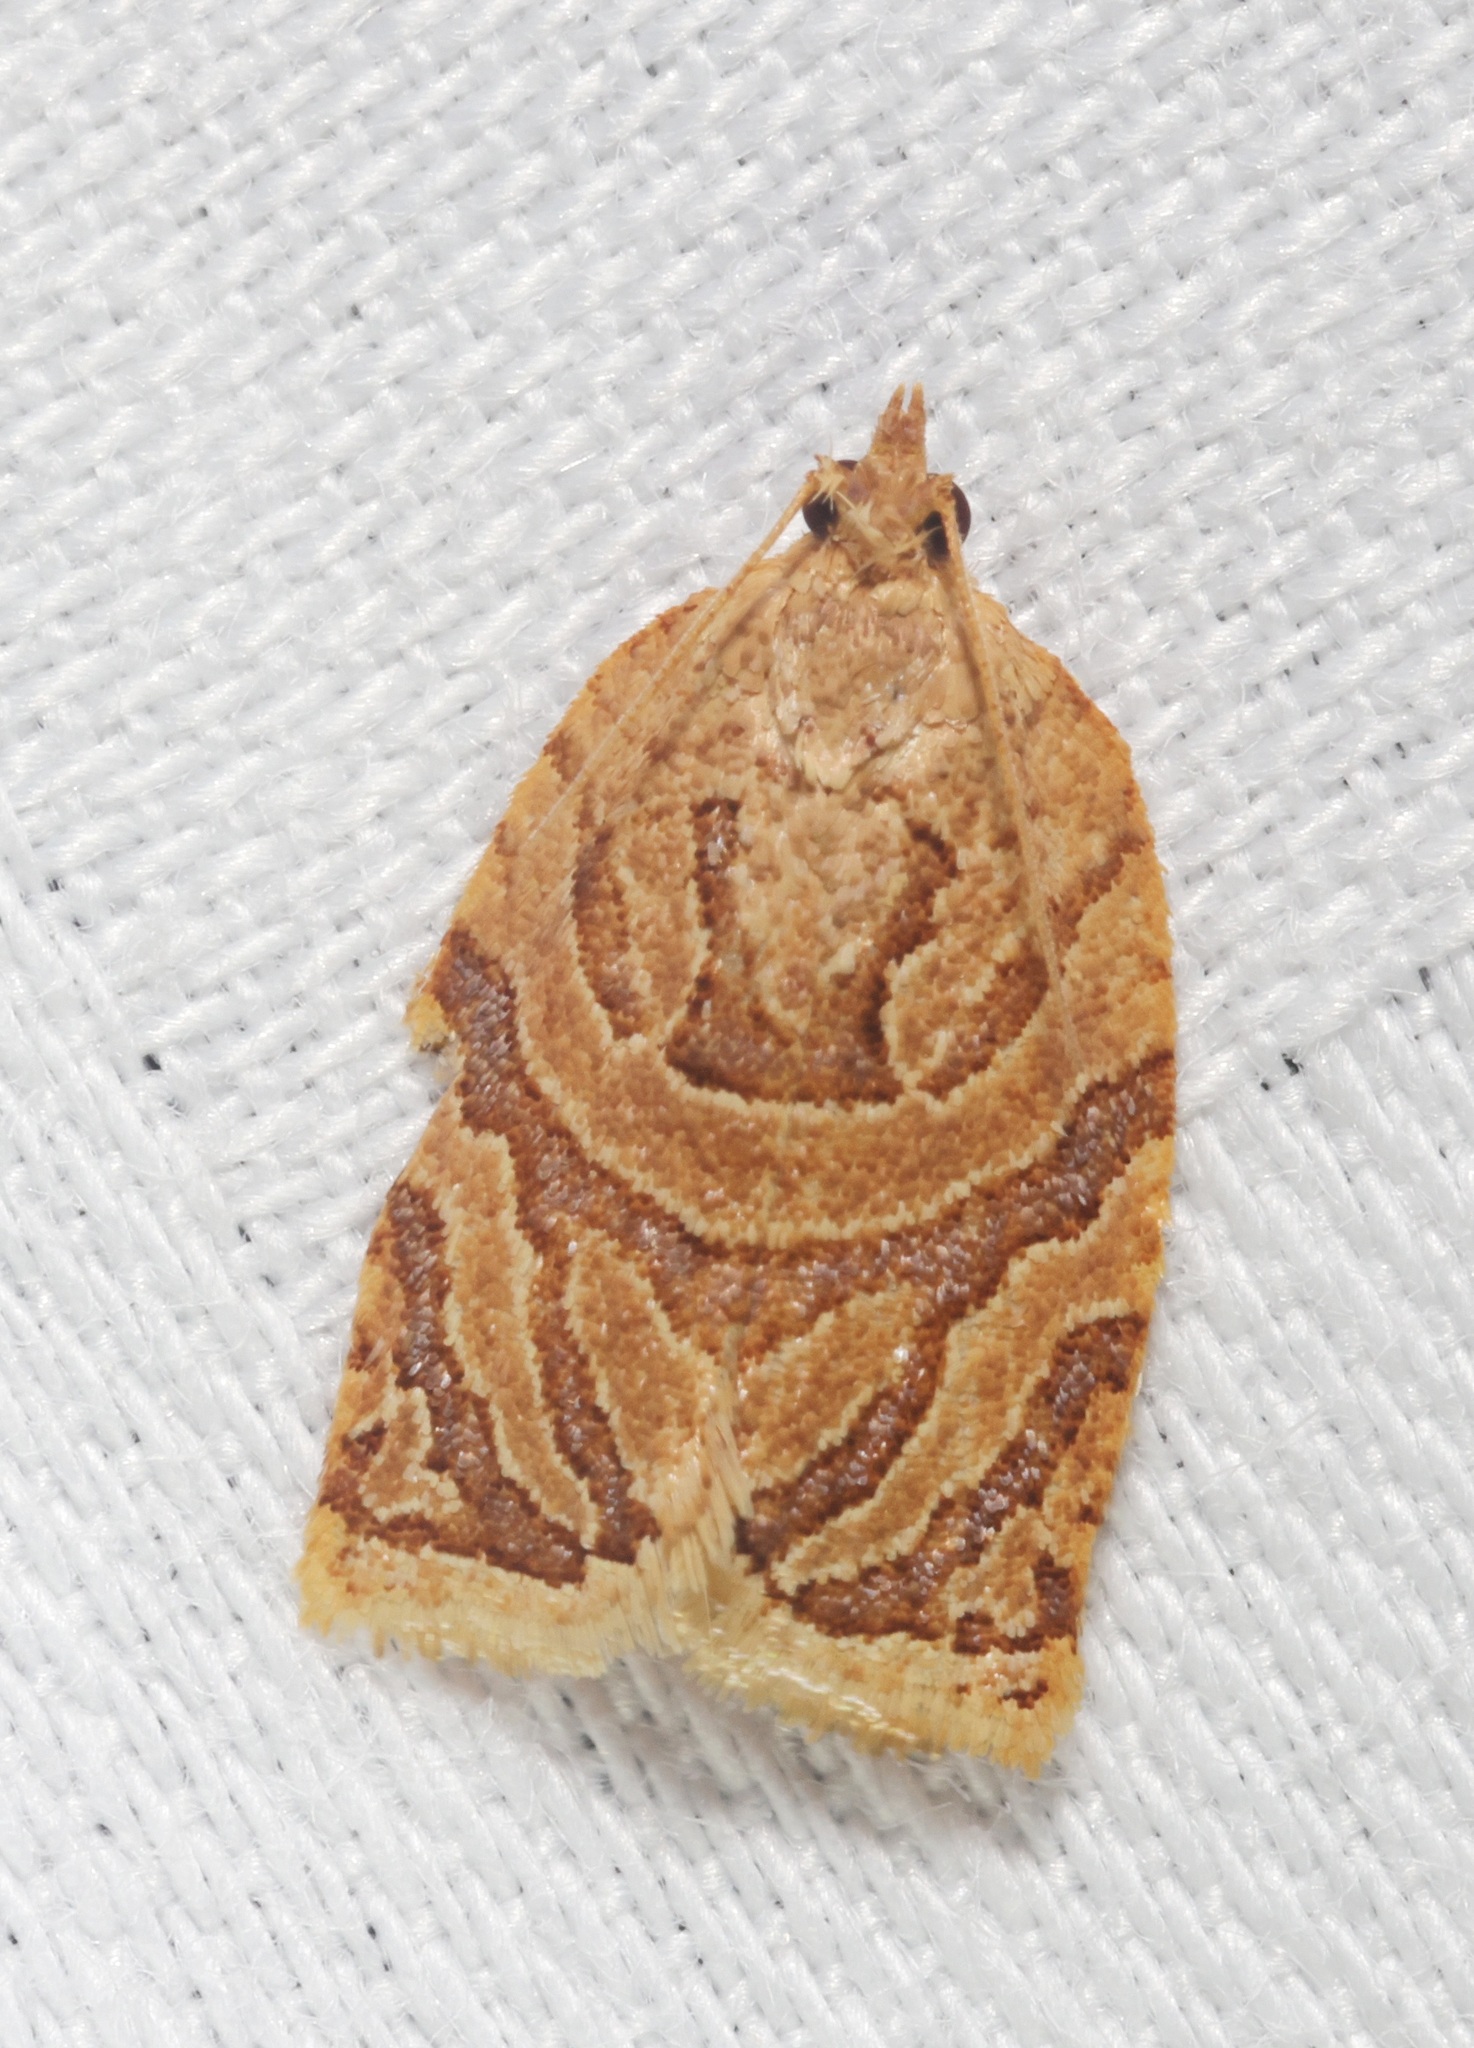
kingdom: Animalia
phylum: Arthropoda
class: Insecta
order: Lepidoptera
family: Tortricidae
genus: Adoxophyes
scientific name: Adoxophyes privatana
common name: Asian orchid tortrix
